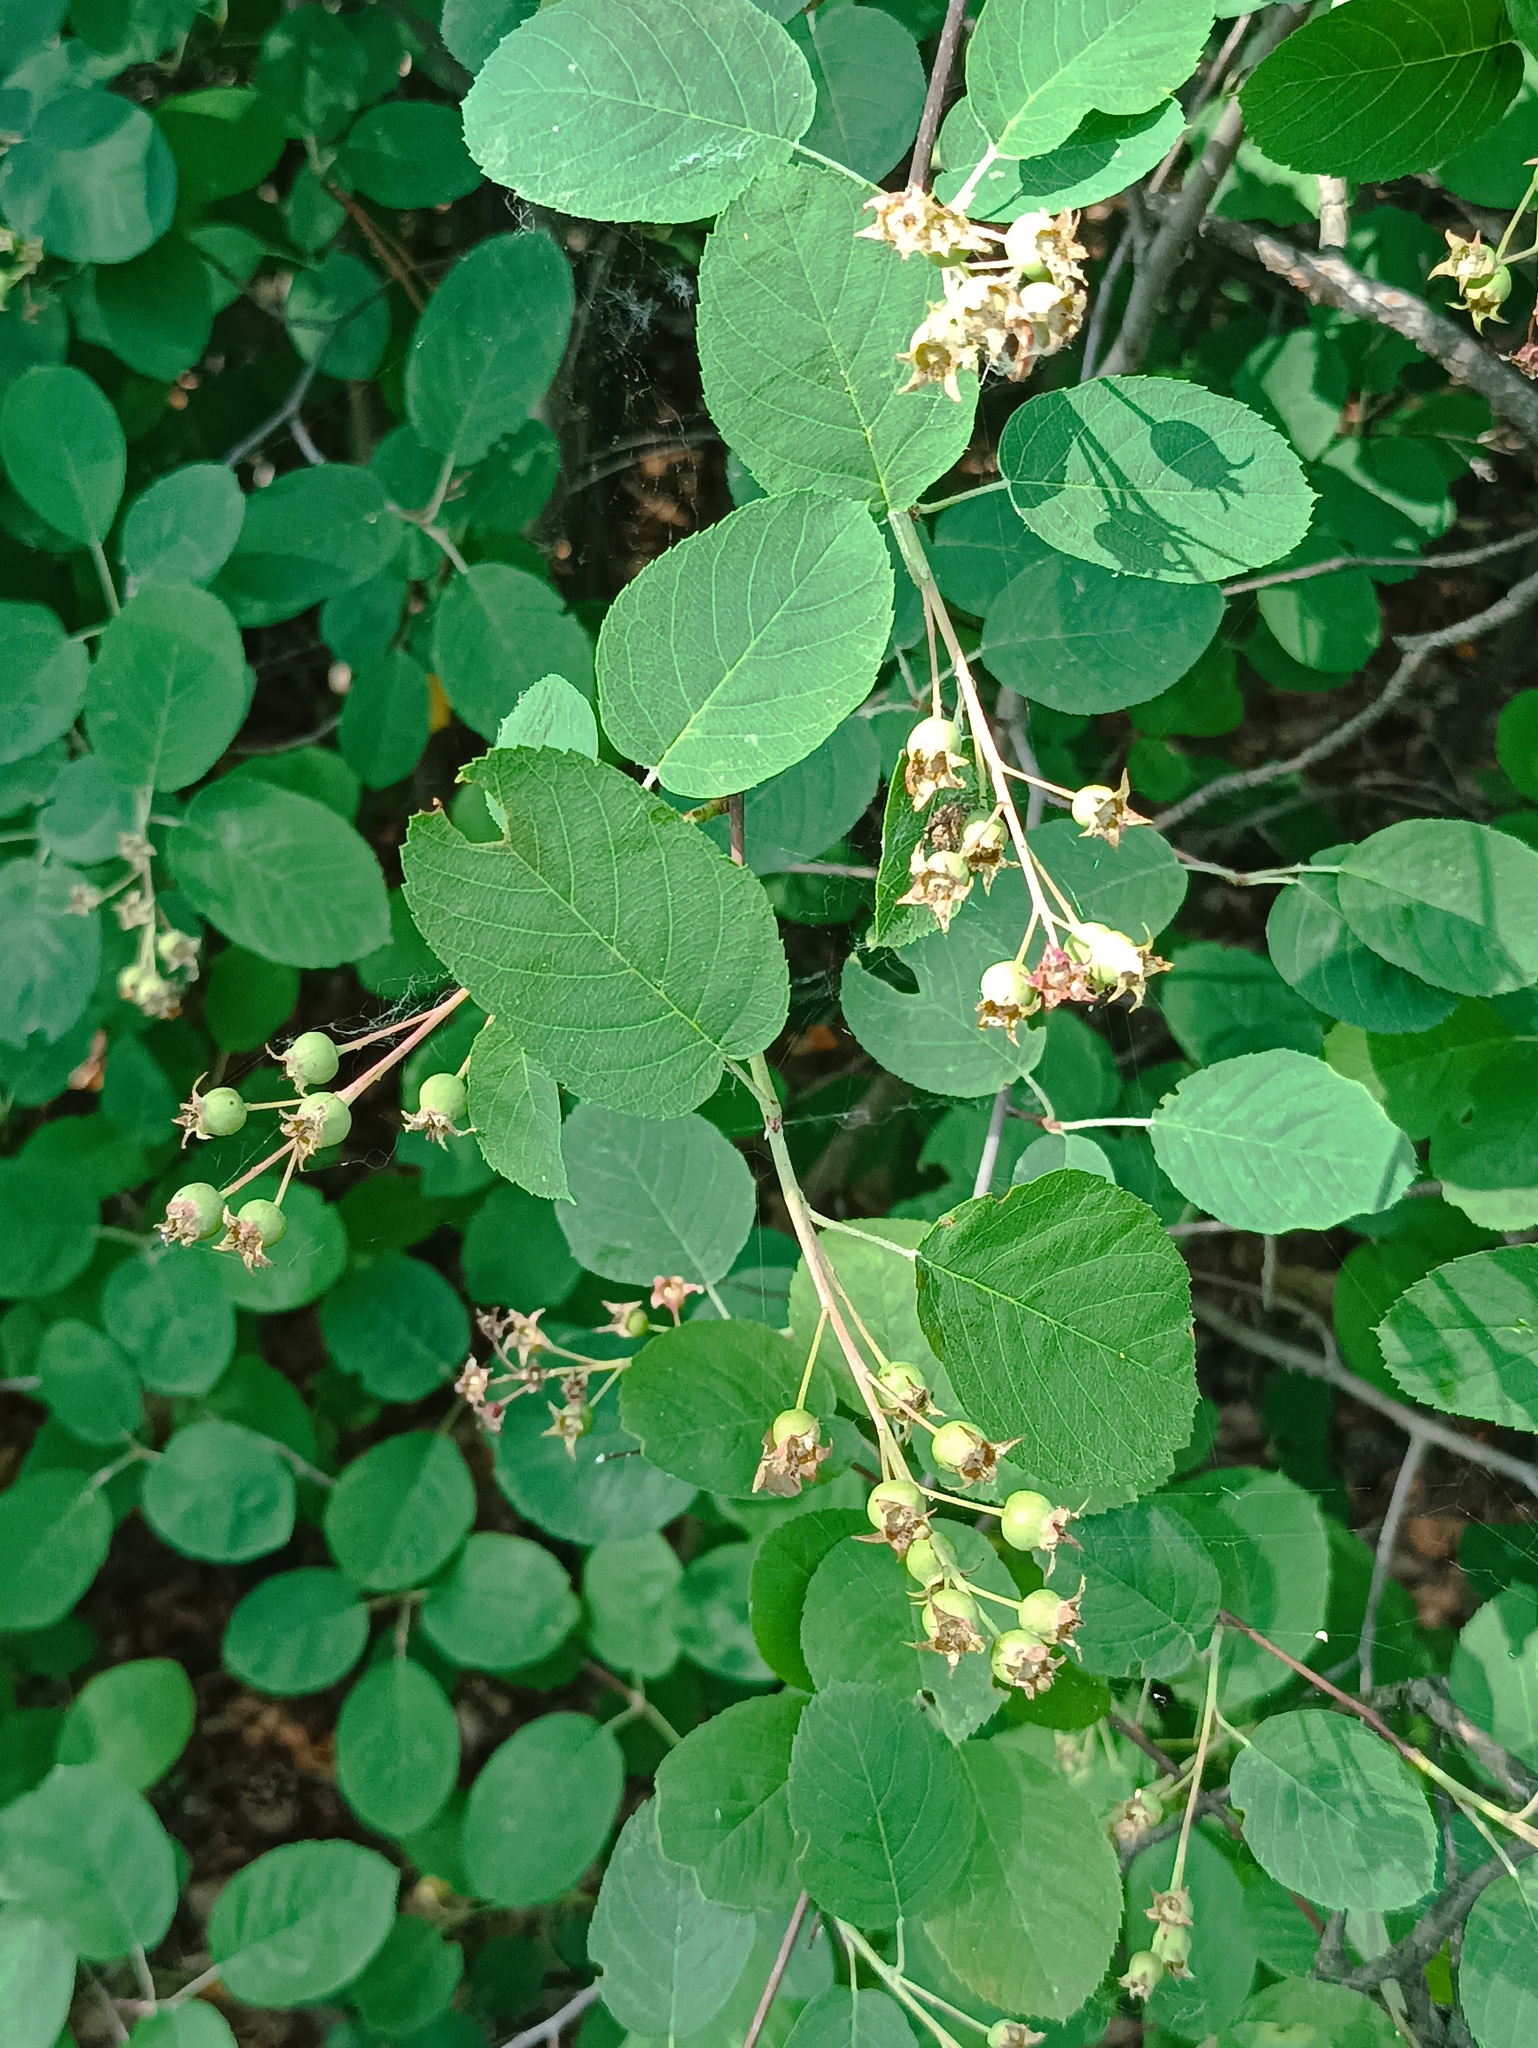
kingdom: Plantae
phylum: Tracheophyta
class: Magnoliopsida
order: Rosales
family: Rosaceae
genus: Amelanchier
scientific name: Amelanchier
